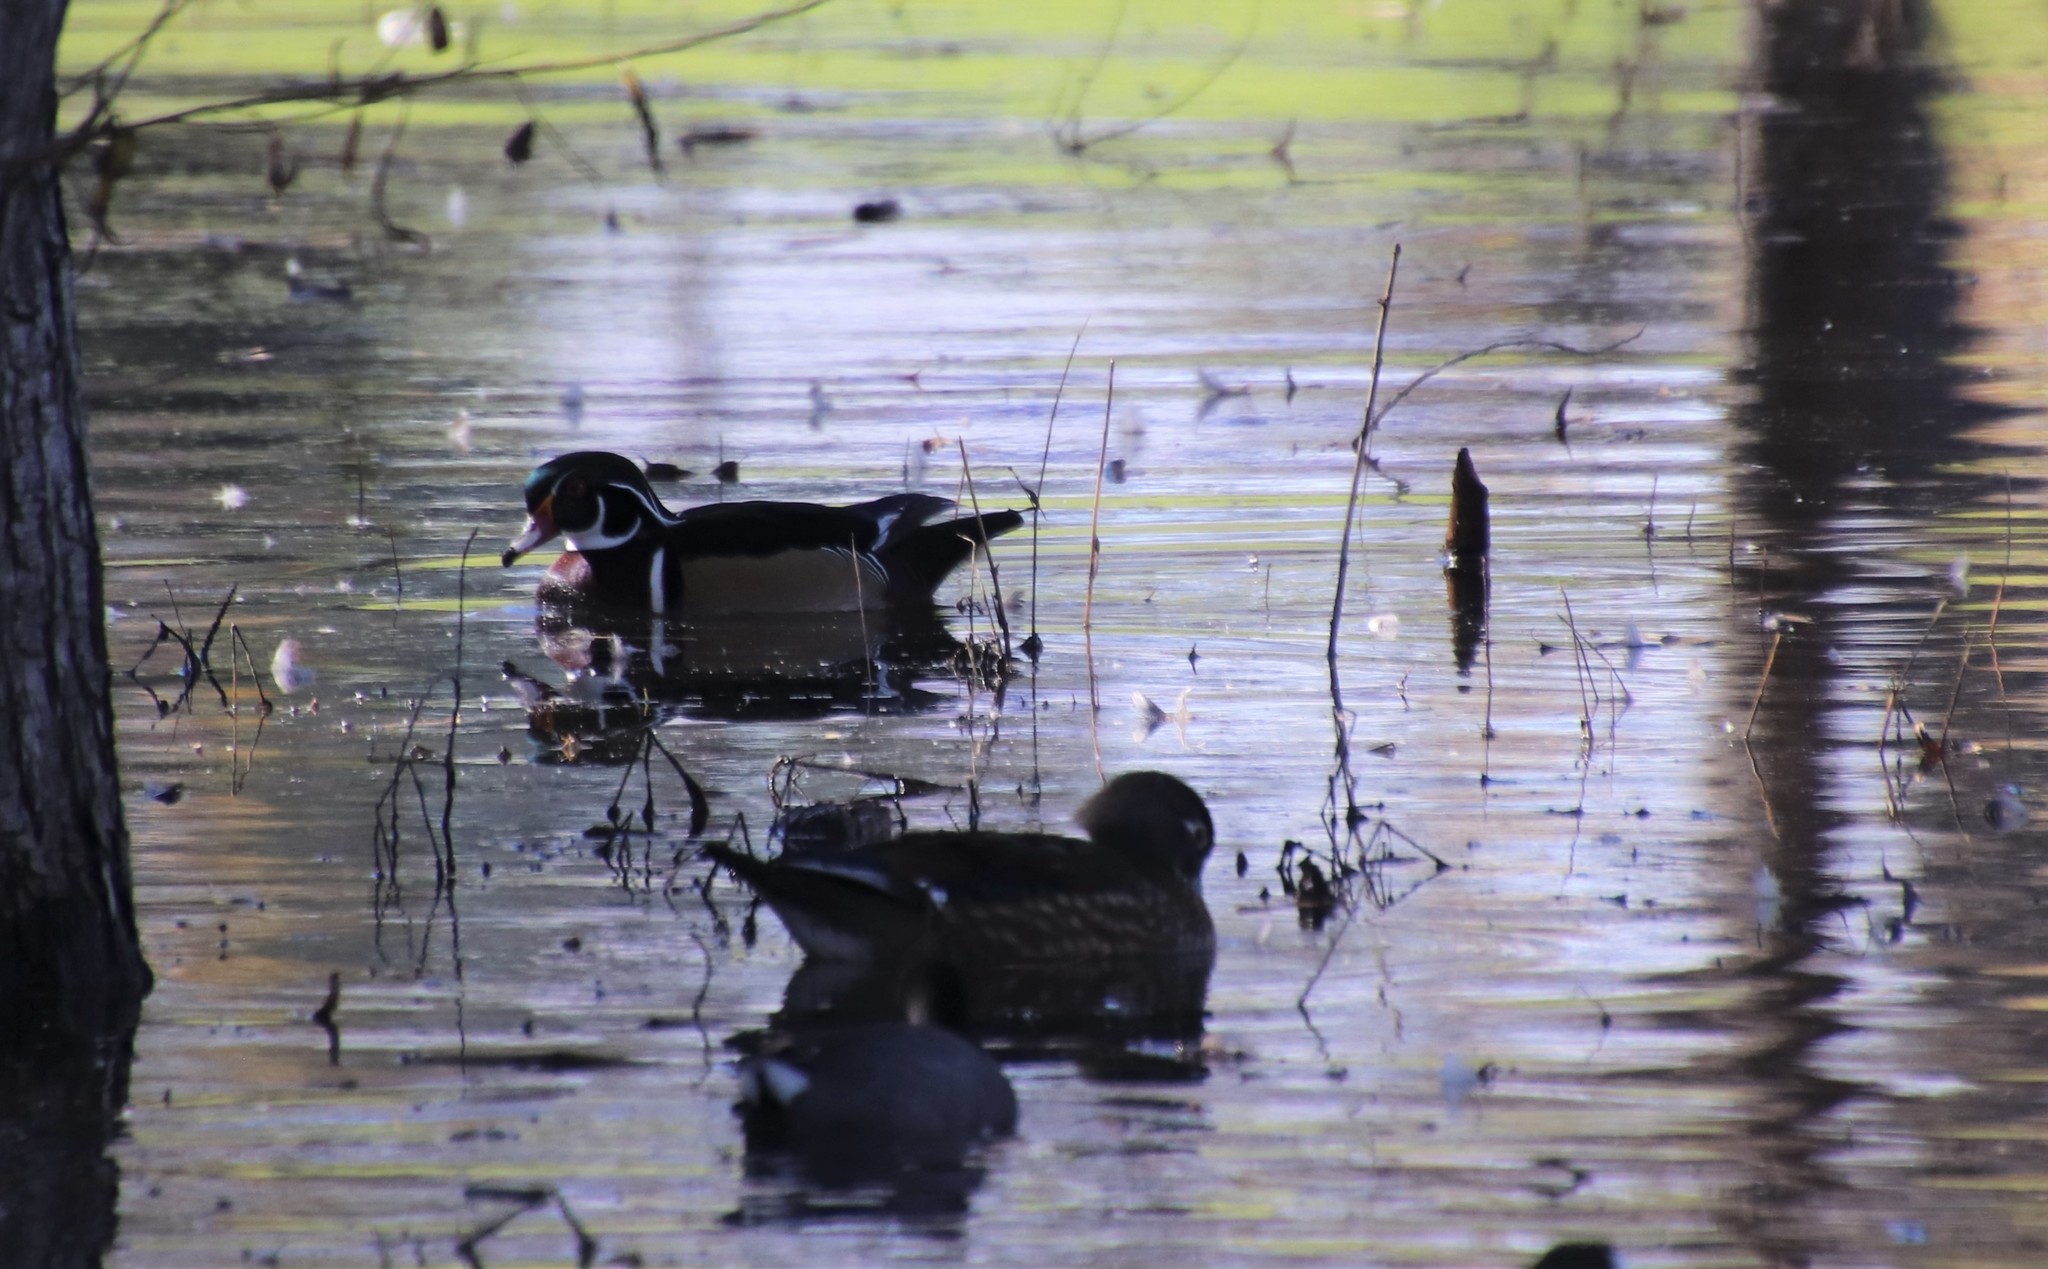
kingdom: Animalia
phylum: Chordata
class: Aves
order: Anseriformes
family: Anatidae
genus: Aix
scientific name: Aix sponsa
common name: Wood duck
